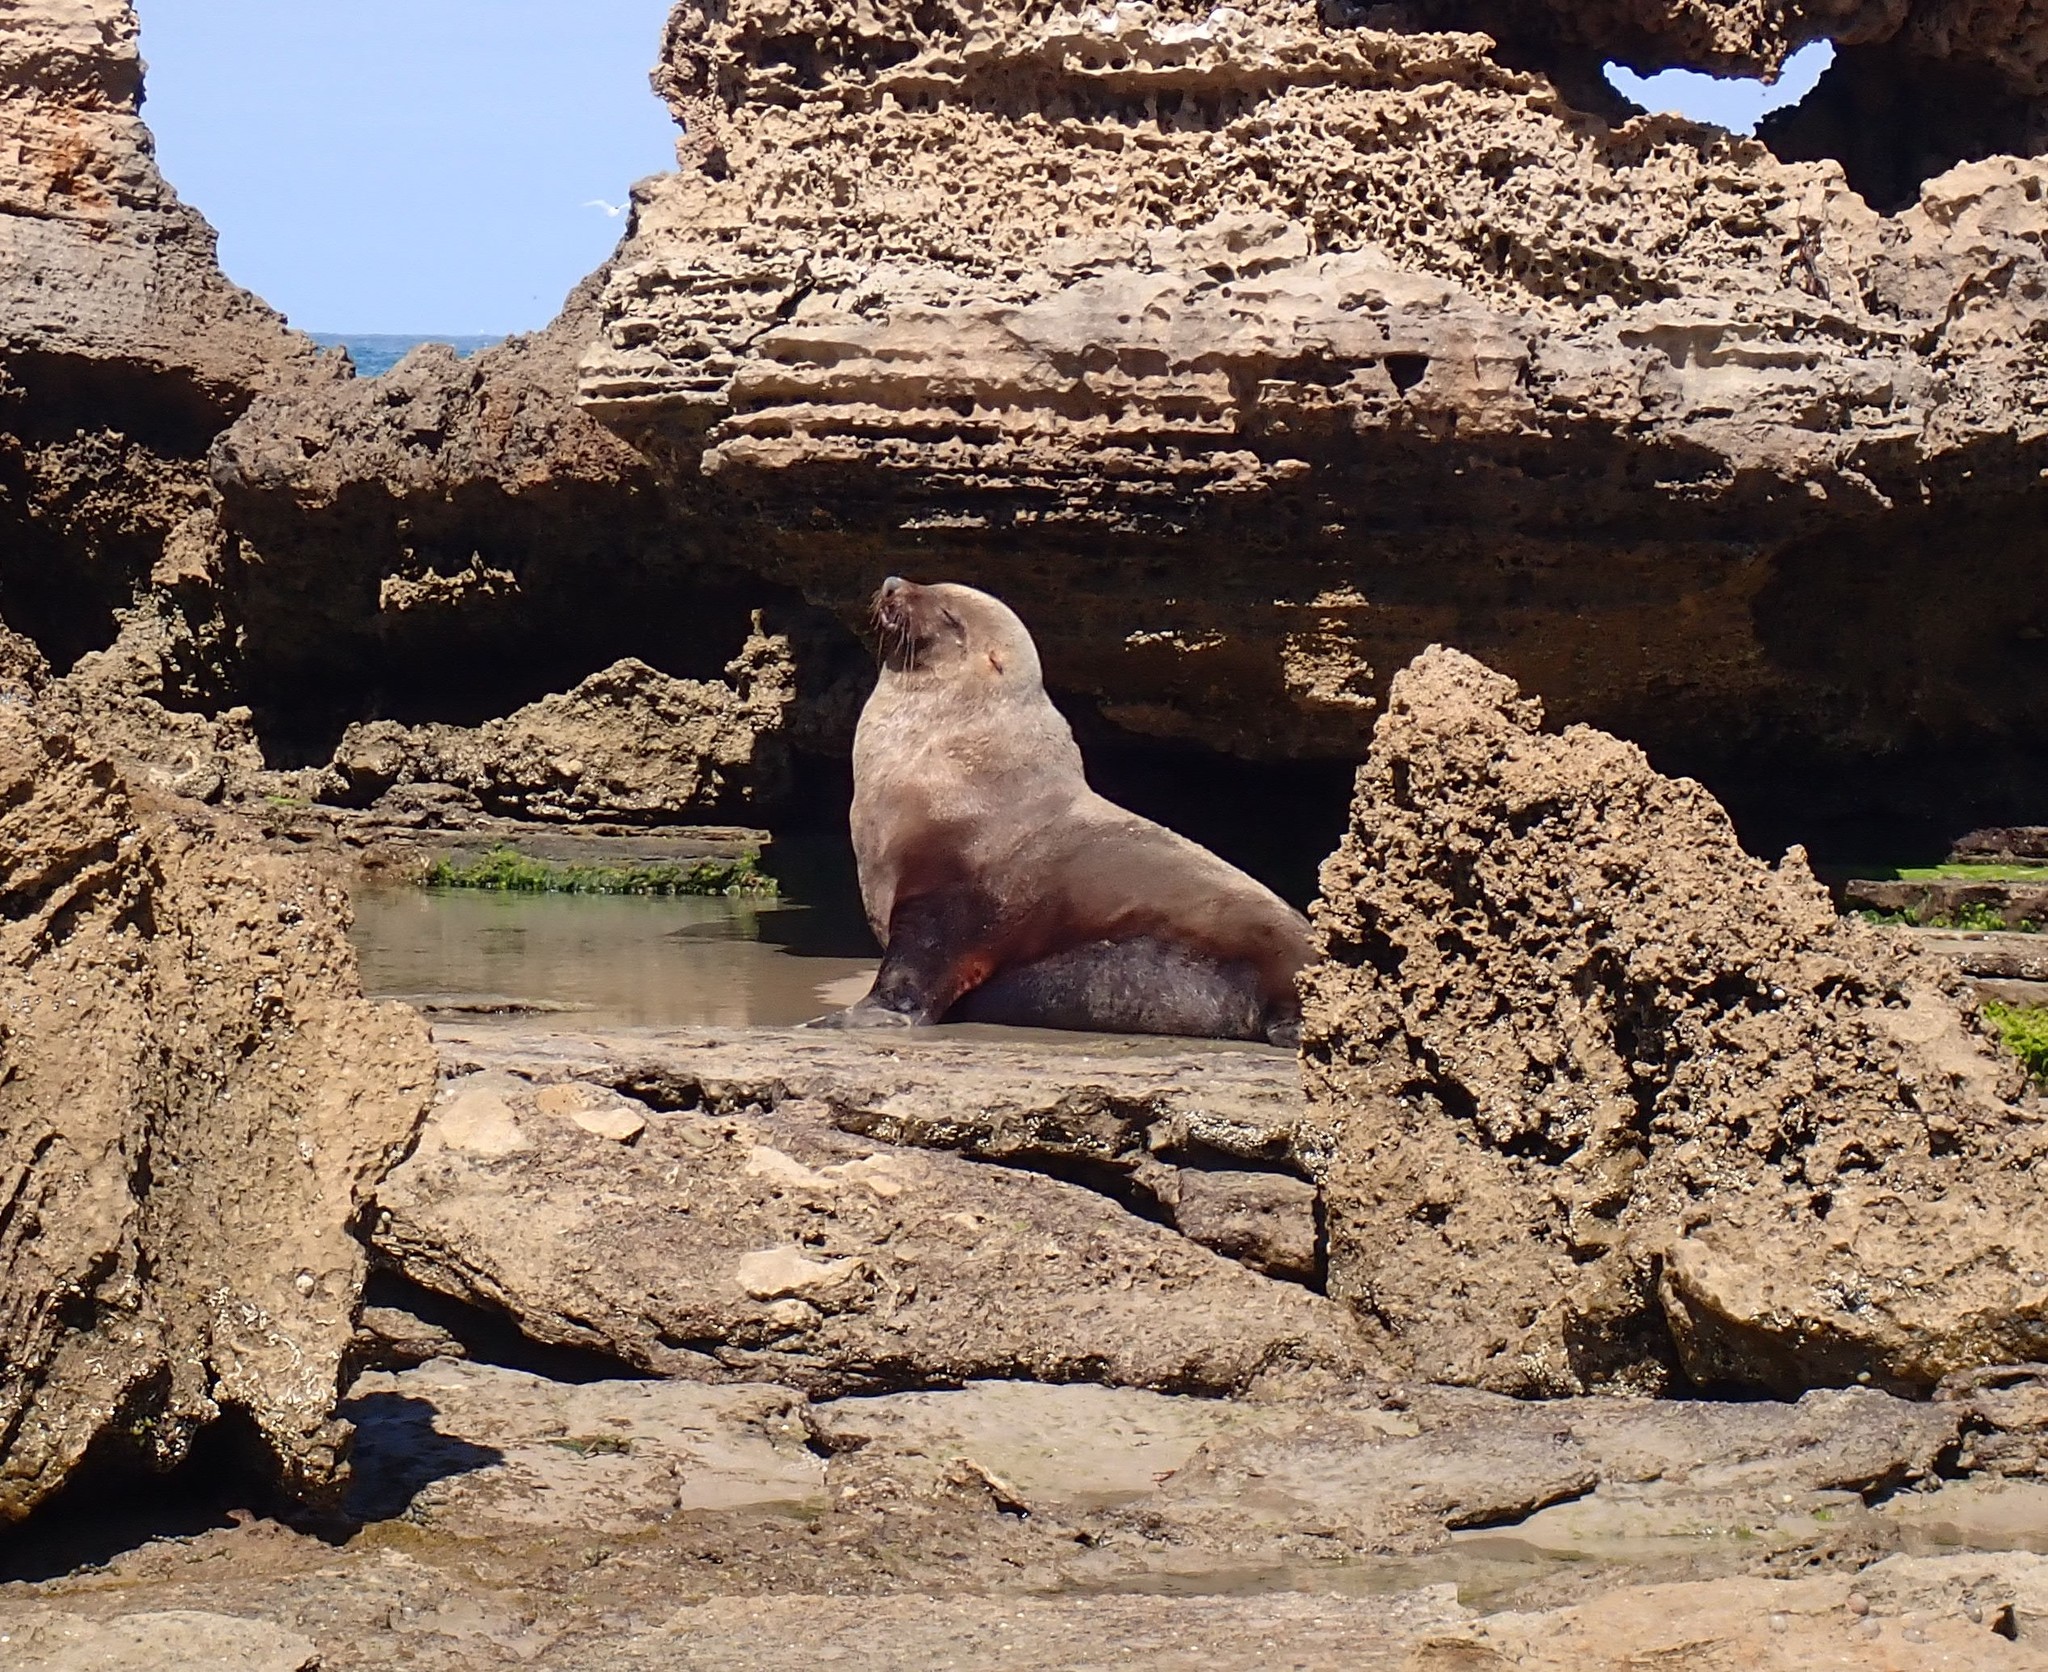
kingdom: Animalia
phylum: Chordata
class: Mammalia
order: Carnivora
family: Otariidae
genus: Arctocephalus
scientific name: Arctocephalus pusillus
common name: Brown fur seal
